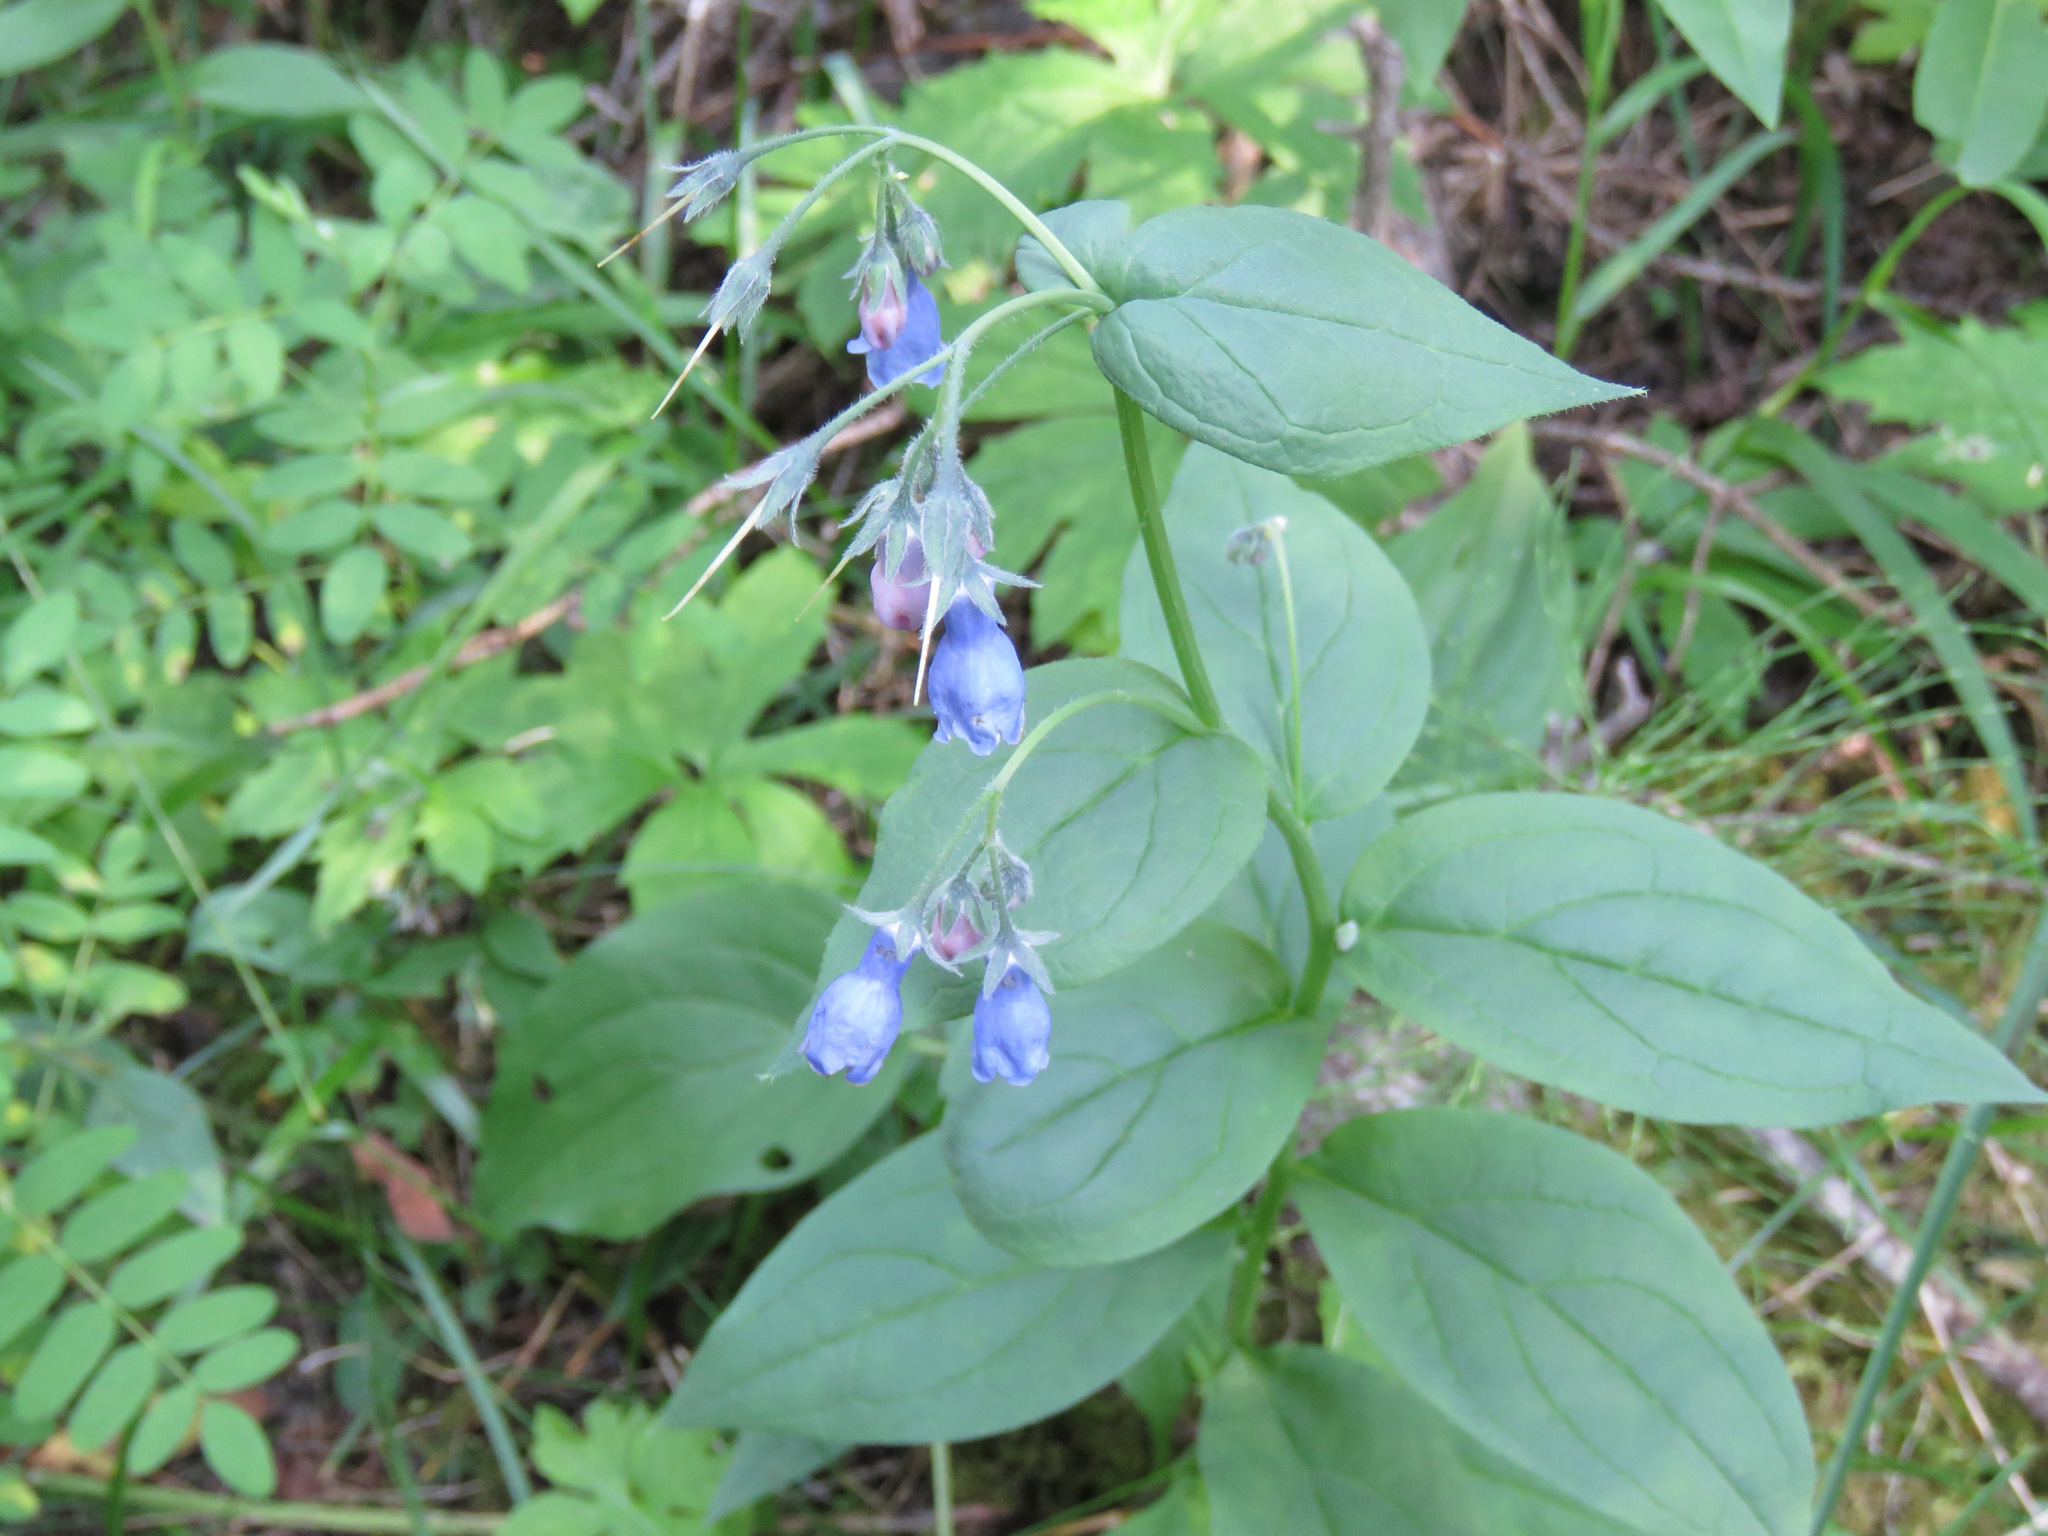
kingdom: Plantae
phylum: Tracheophyta
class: Magnoliopsida
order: Boraginales
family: Boraginaceae
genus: Mertensia
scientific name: Mertensia paniculata
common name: Panicled bluebells
